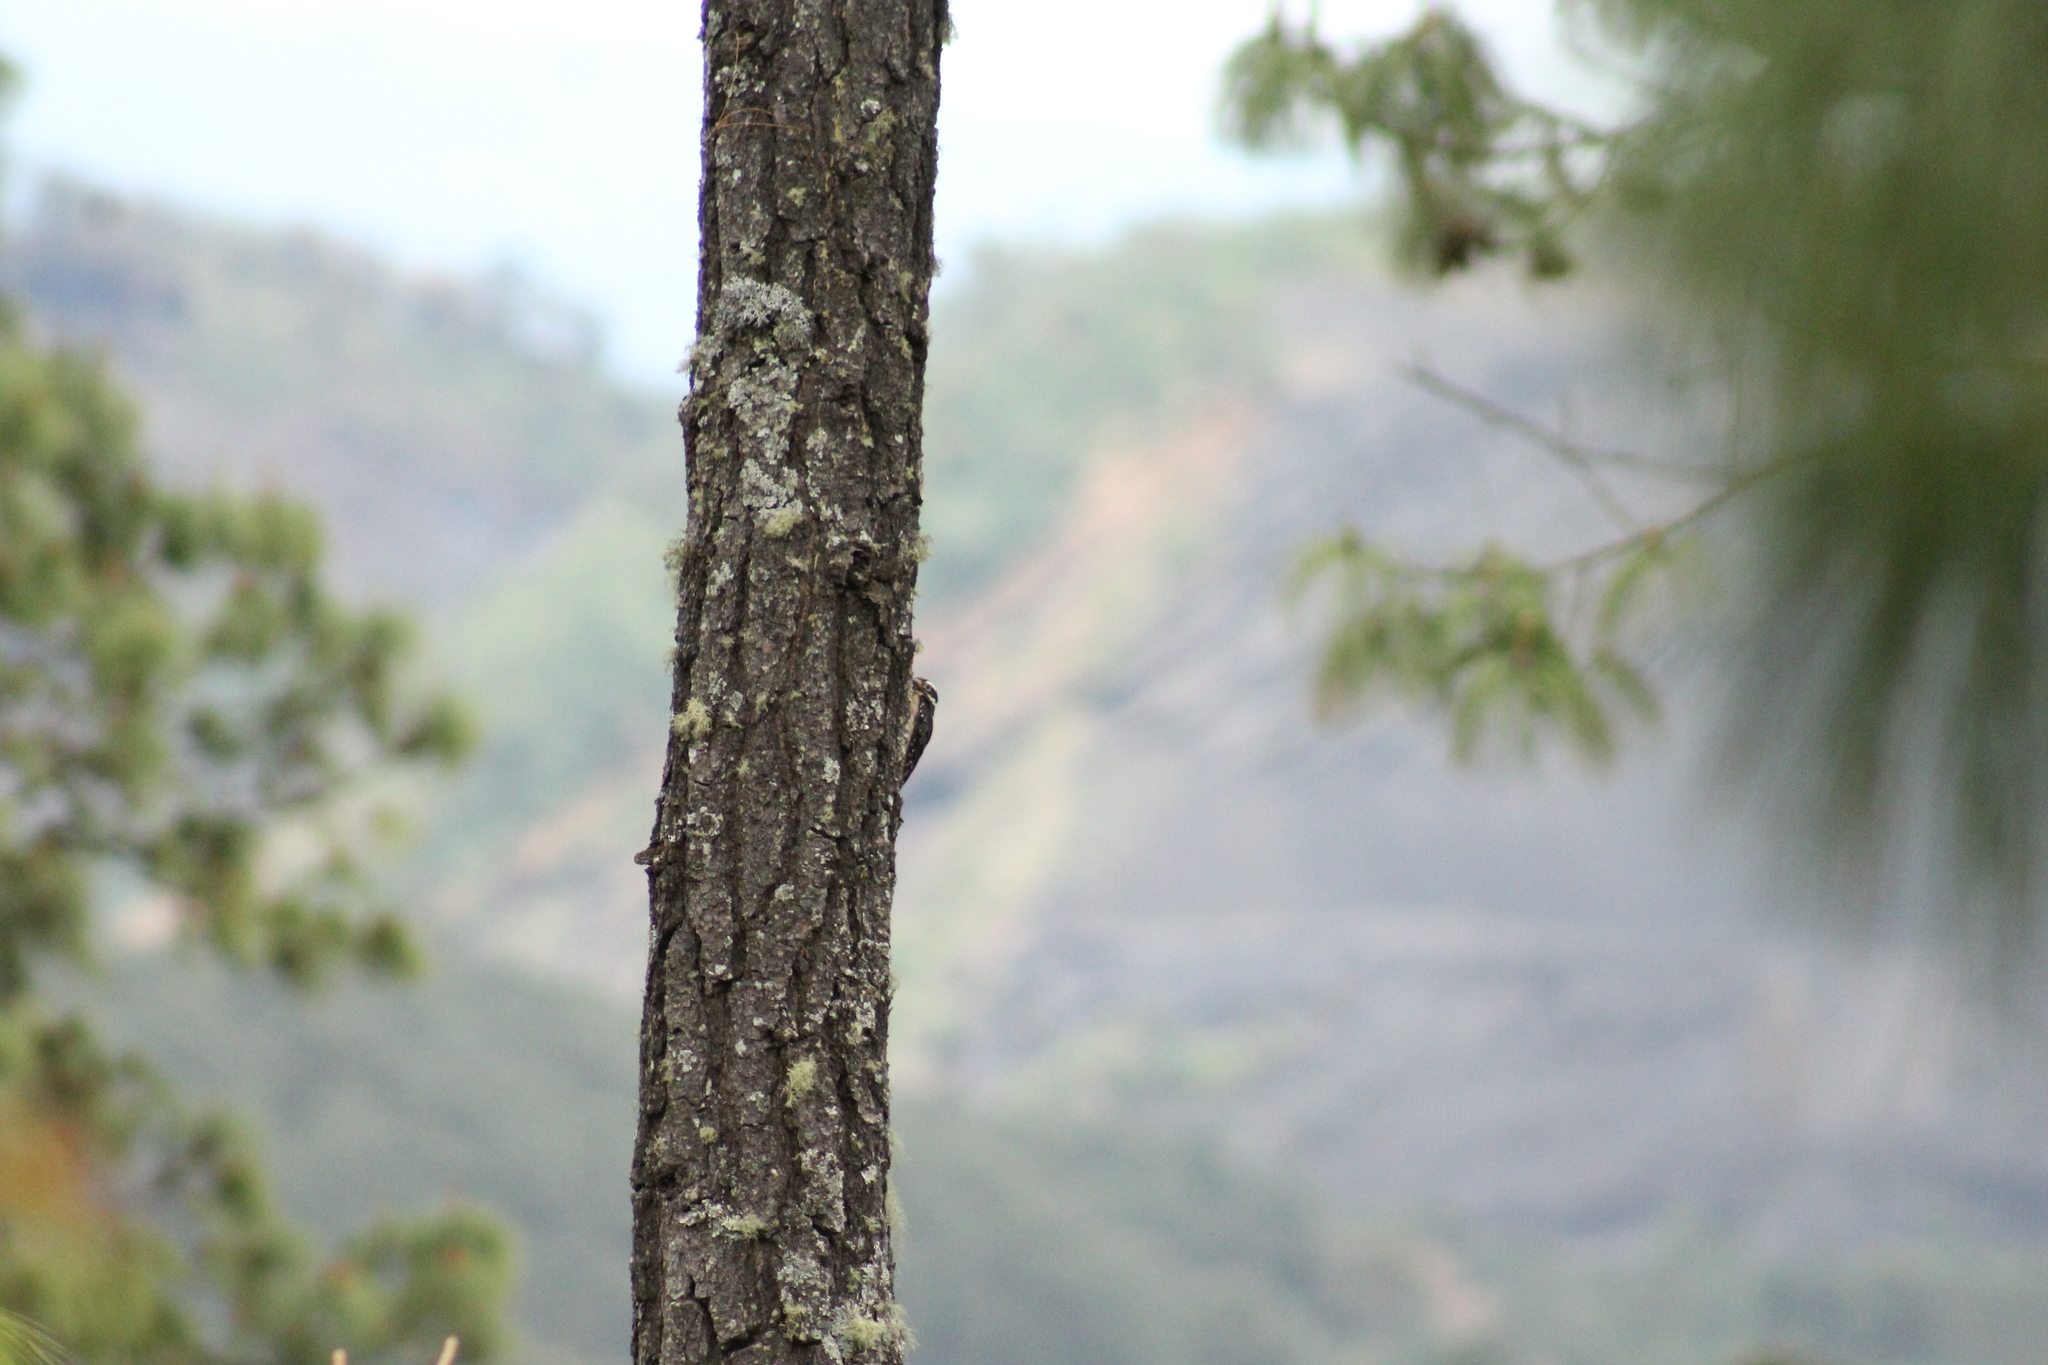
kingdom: Animalia
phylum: Chordata
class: Aves
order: Piciformes
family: Picidae
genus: Leuconotopicus
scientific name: Leuconotopicus villosus
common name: Hairy woodpecker
